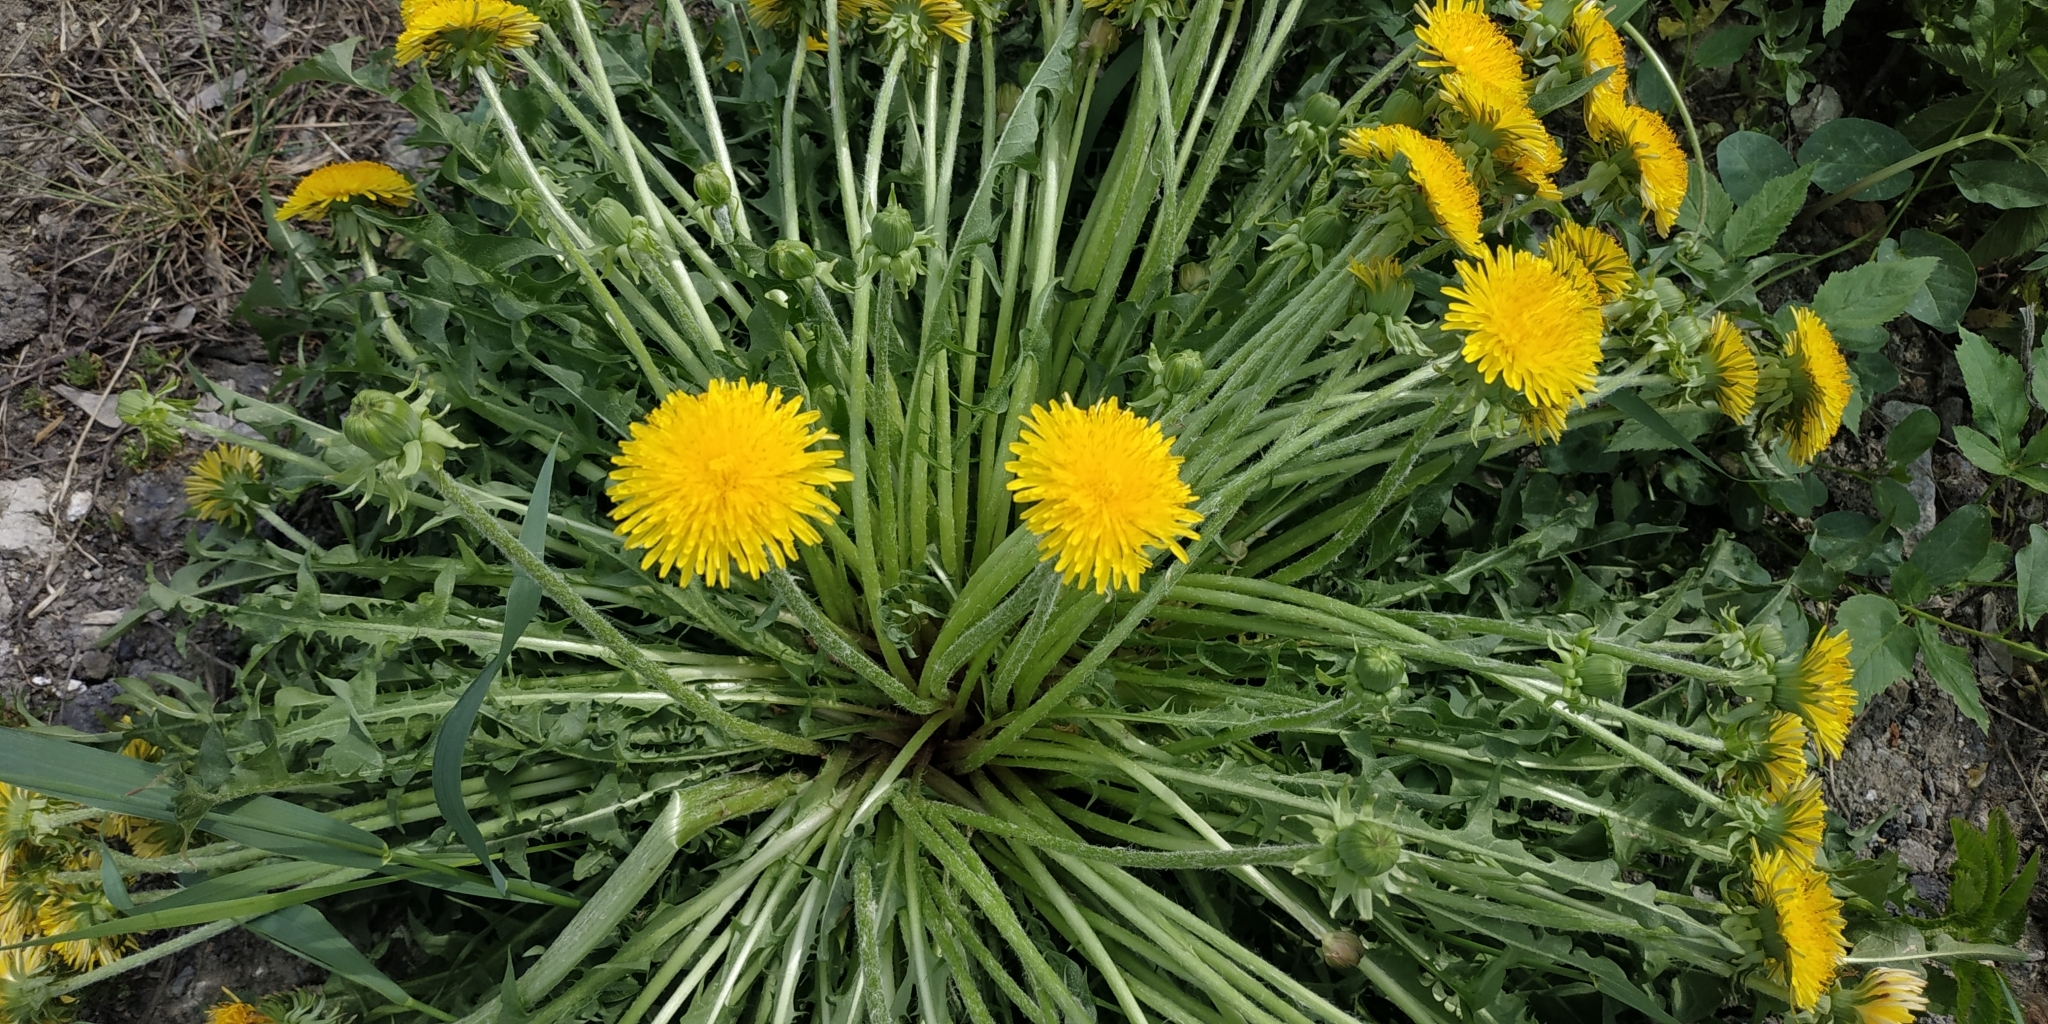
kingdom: Plantae
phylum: Tracheophyta
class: Magnoliopsida
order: Asterales
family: Asteraceae
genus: Taraxacum
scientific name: Taraxacum officinale
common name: Common dandelion
